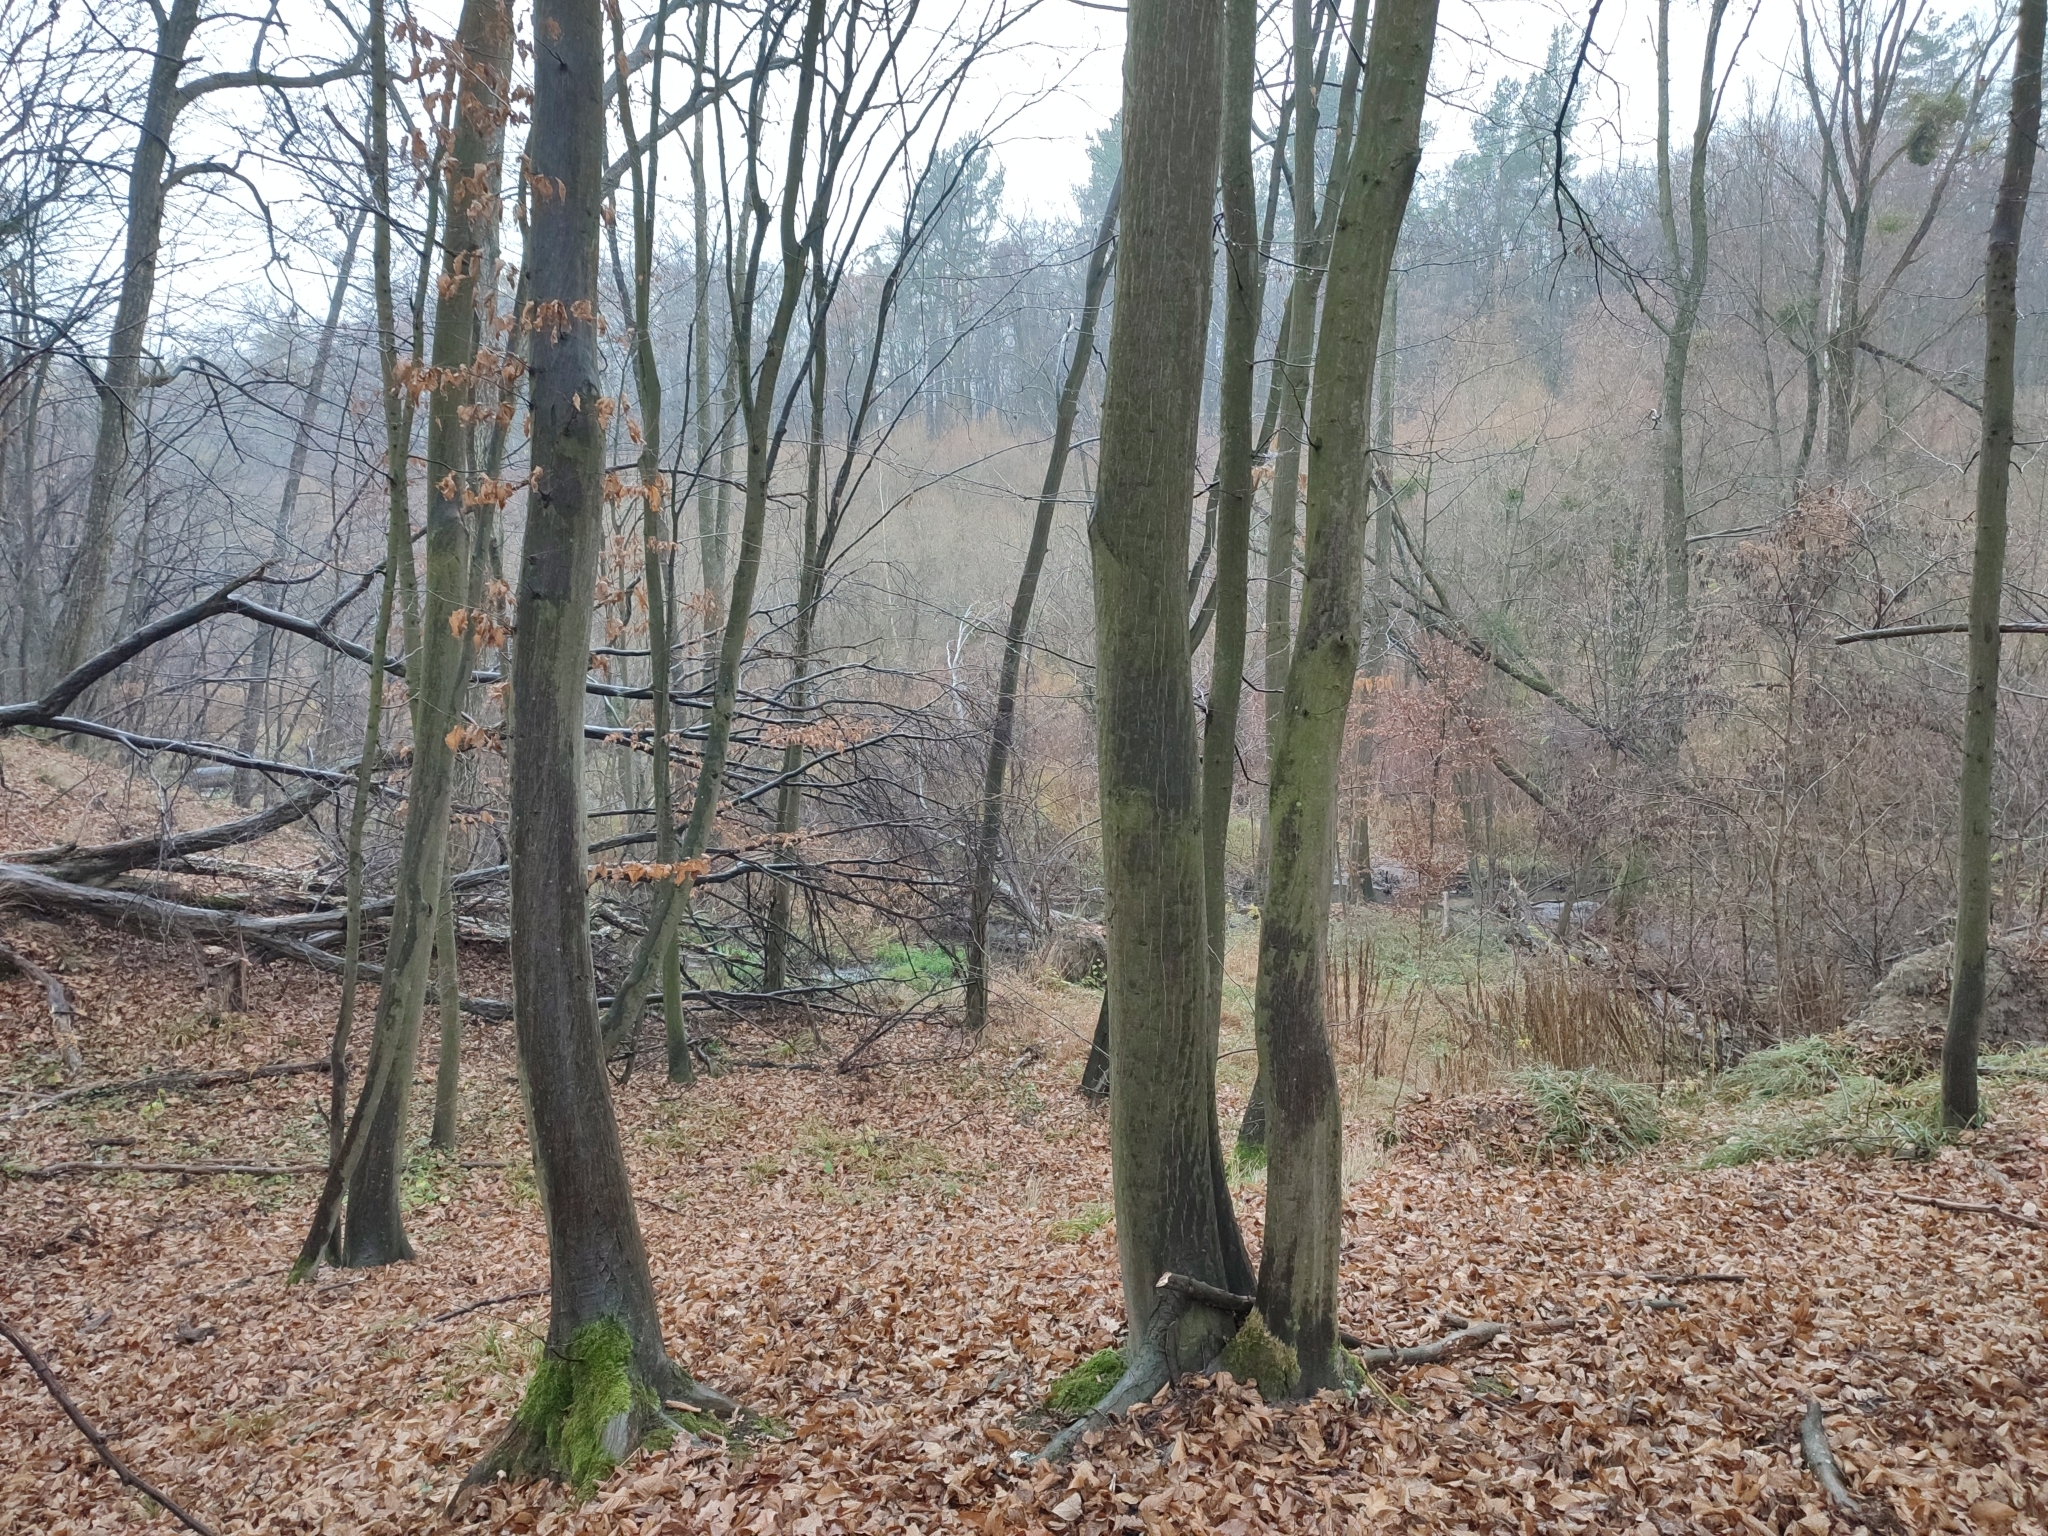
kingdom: Plantae
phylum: Tracheophyta
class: Magnoliopsida
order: Fagales
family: Betulaceae
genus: Carpinus
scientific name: Carpinus betulus
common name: Hornbeam
